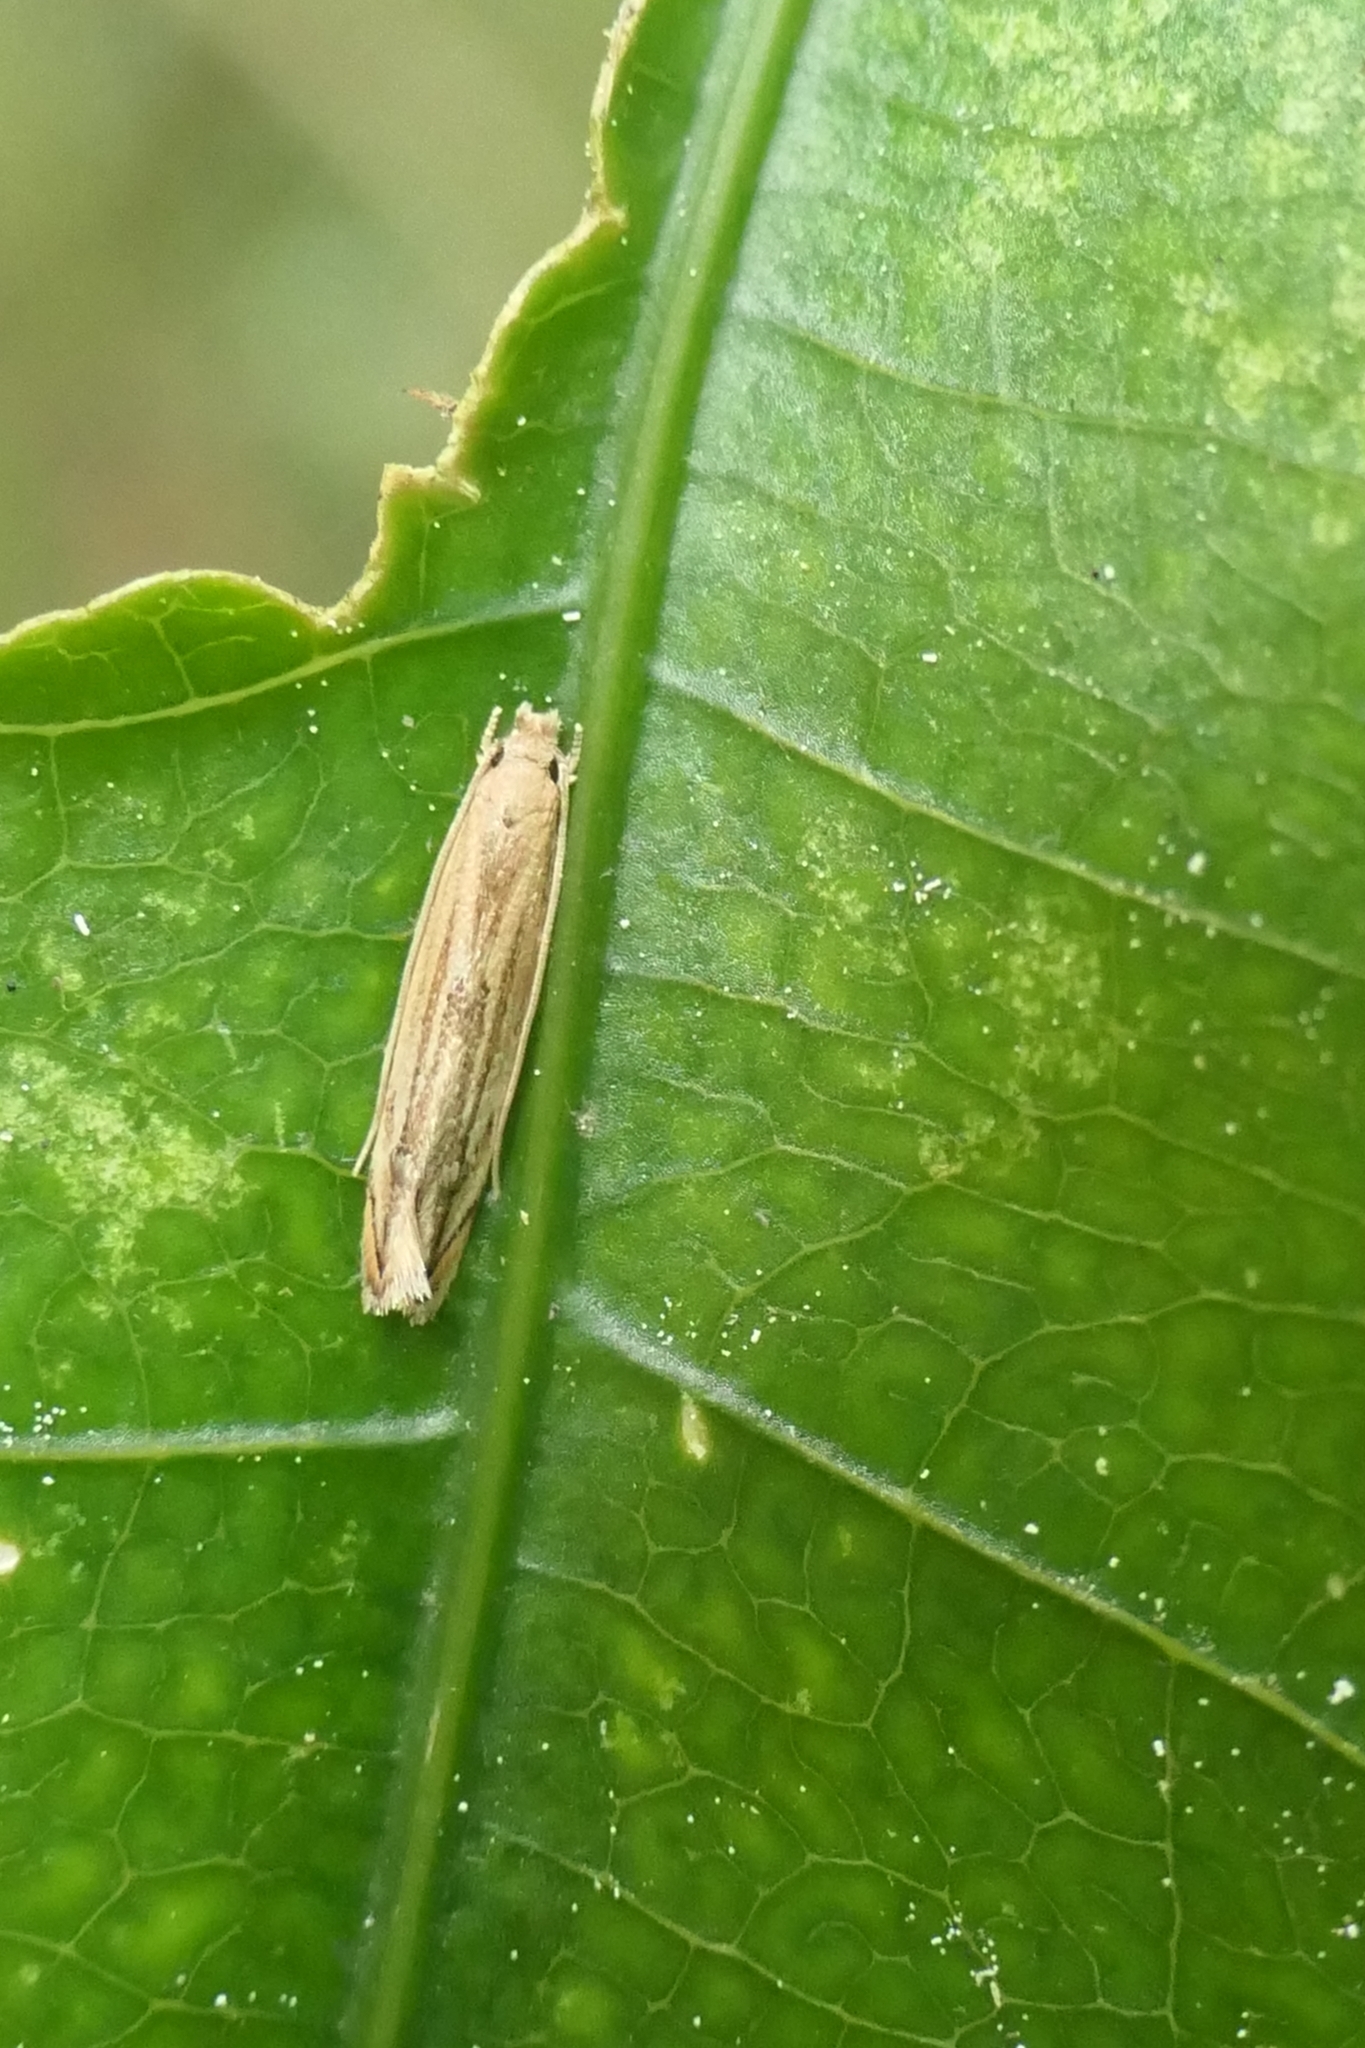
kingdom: Animalia
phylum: Arthropoda
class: Insecta
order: Lepidoptera
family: Tineidae
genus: Amphixystis
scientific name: Amphixystis hapsimacha
